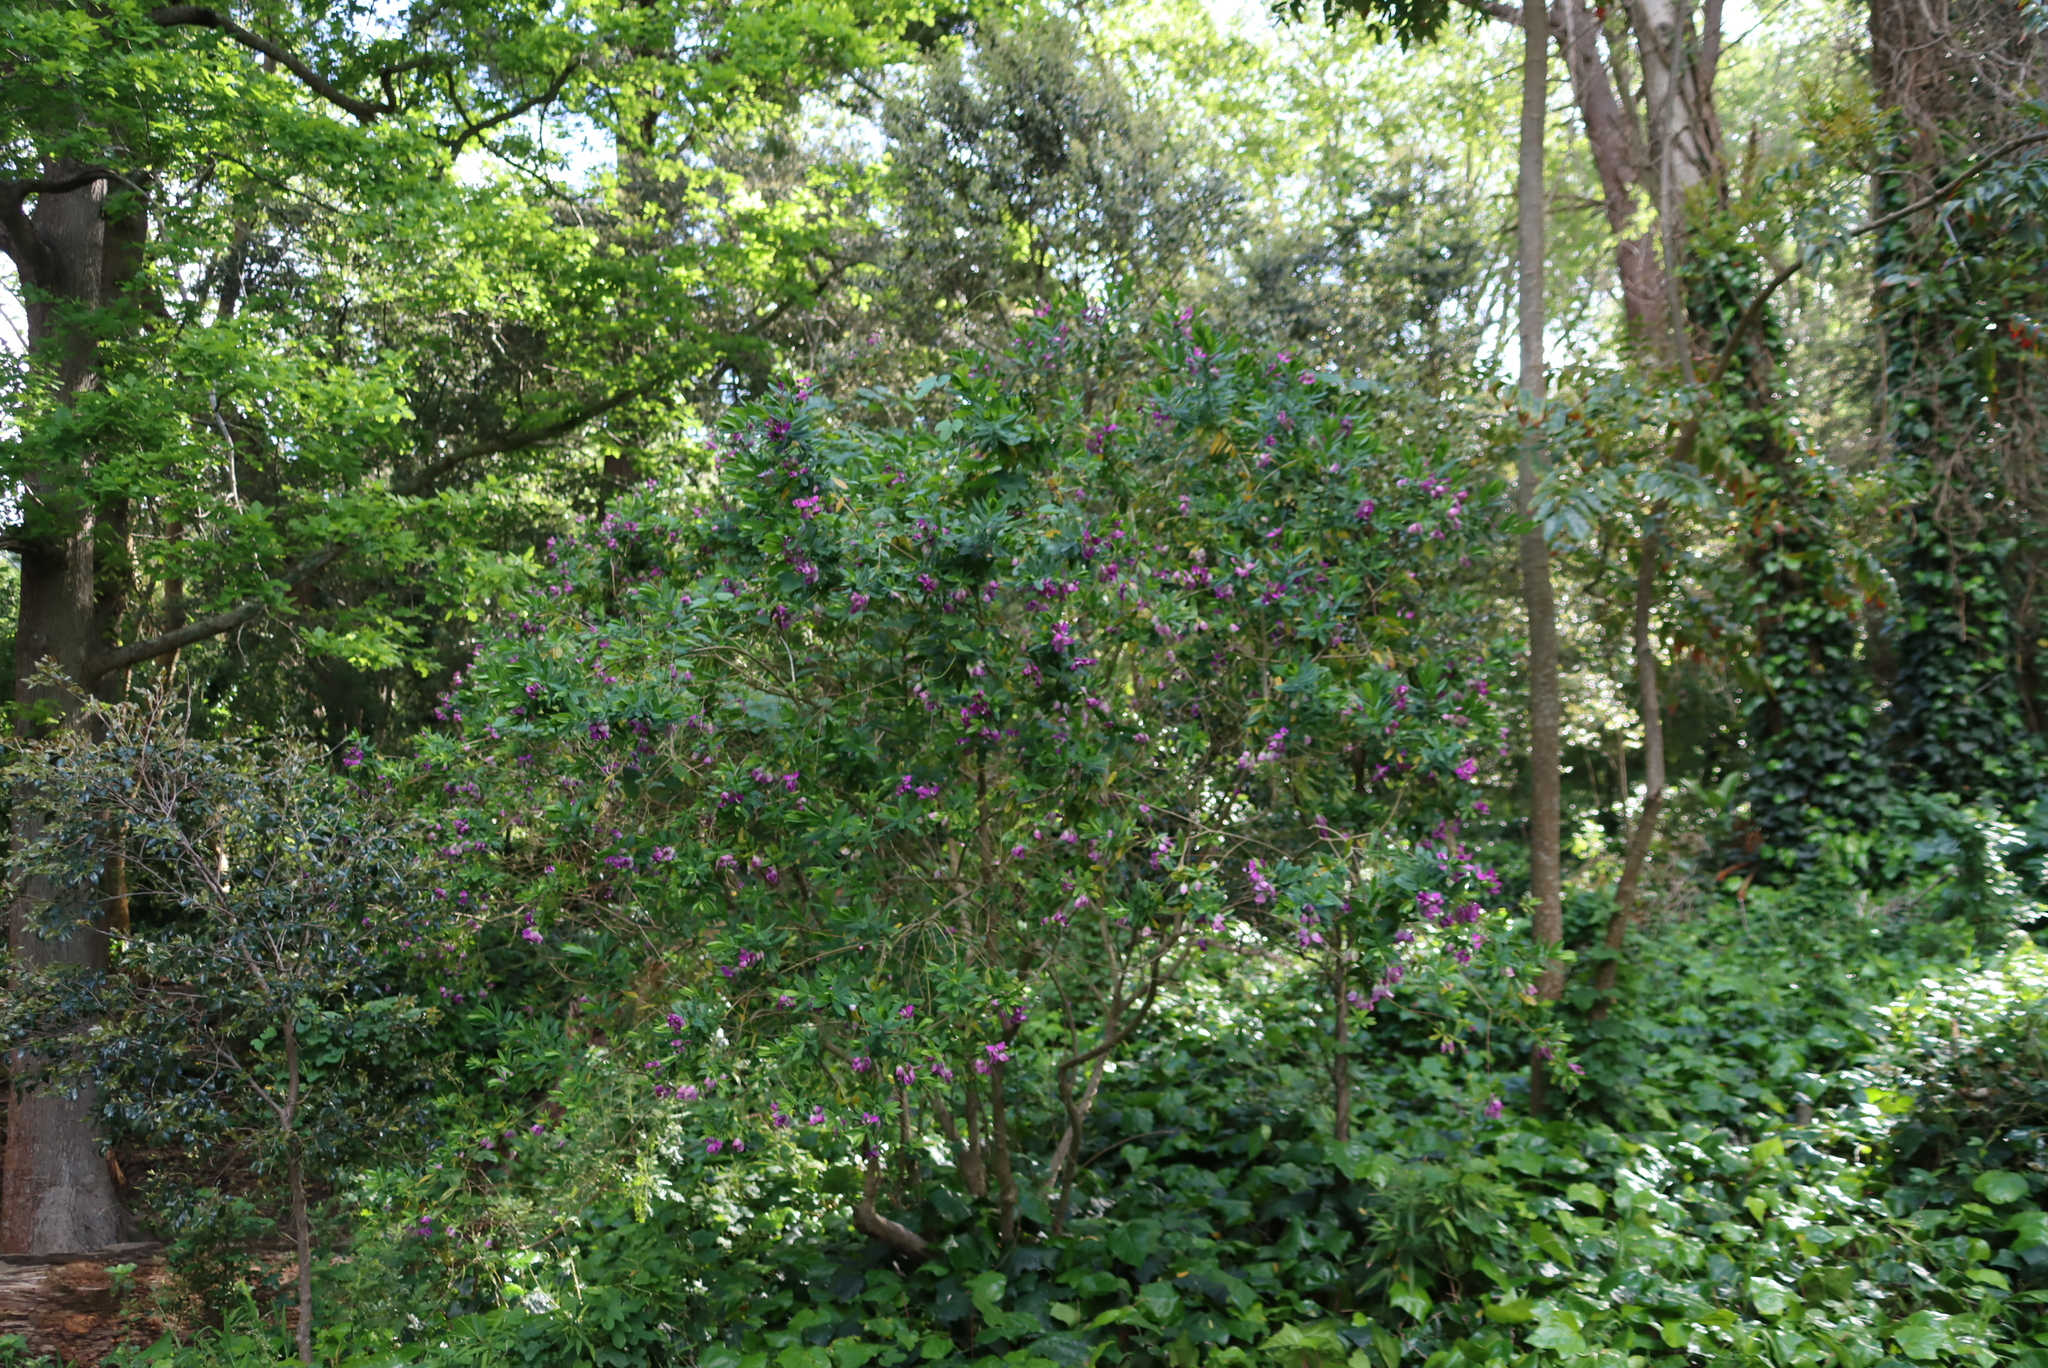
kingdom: Plantae
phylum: Tracheophyta
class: Magnoliopsida
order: Fabales
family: Polygalaceae
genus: Polygala
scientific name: Polygala myrtifolia
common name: Myrtle-leaf milkwort
